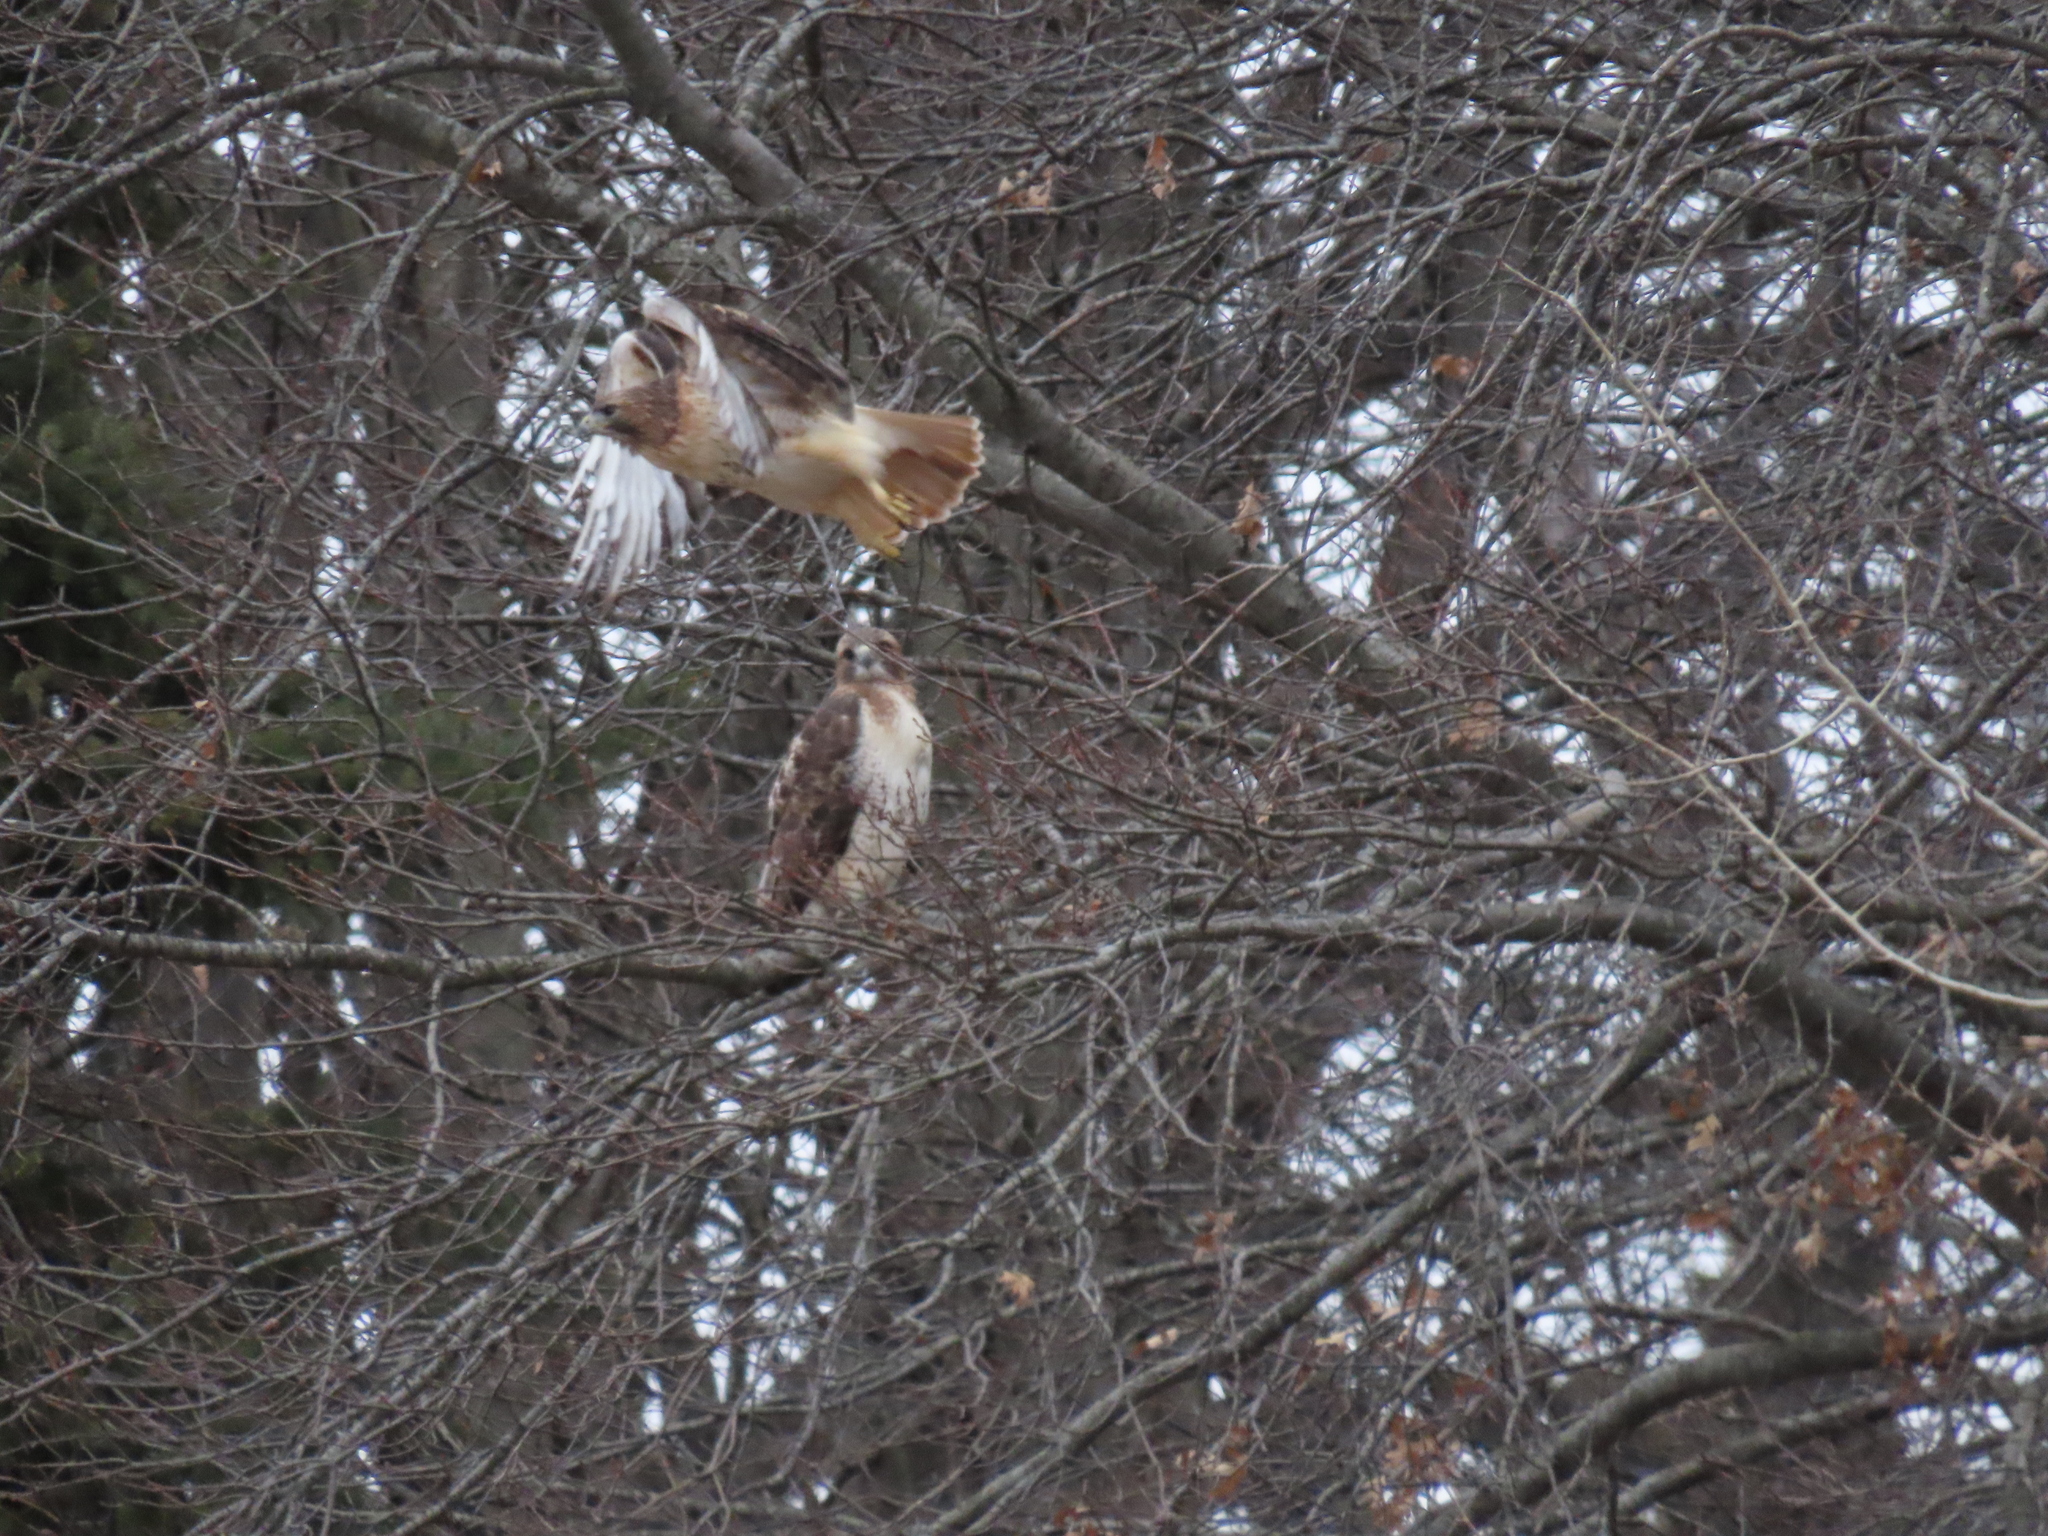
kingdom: Animalia
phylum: Chordata
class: Aves
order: Accipitriformes
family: Accipitridae
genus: Buteo
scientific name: Buteo jamaicensis
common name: Red-tailed hawk
